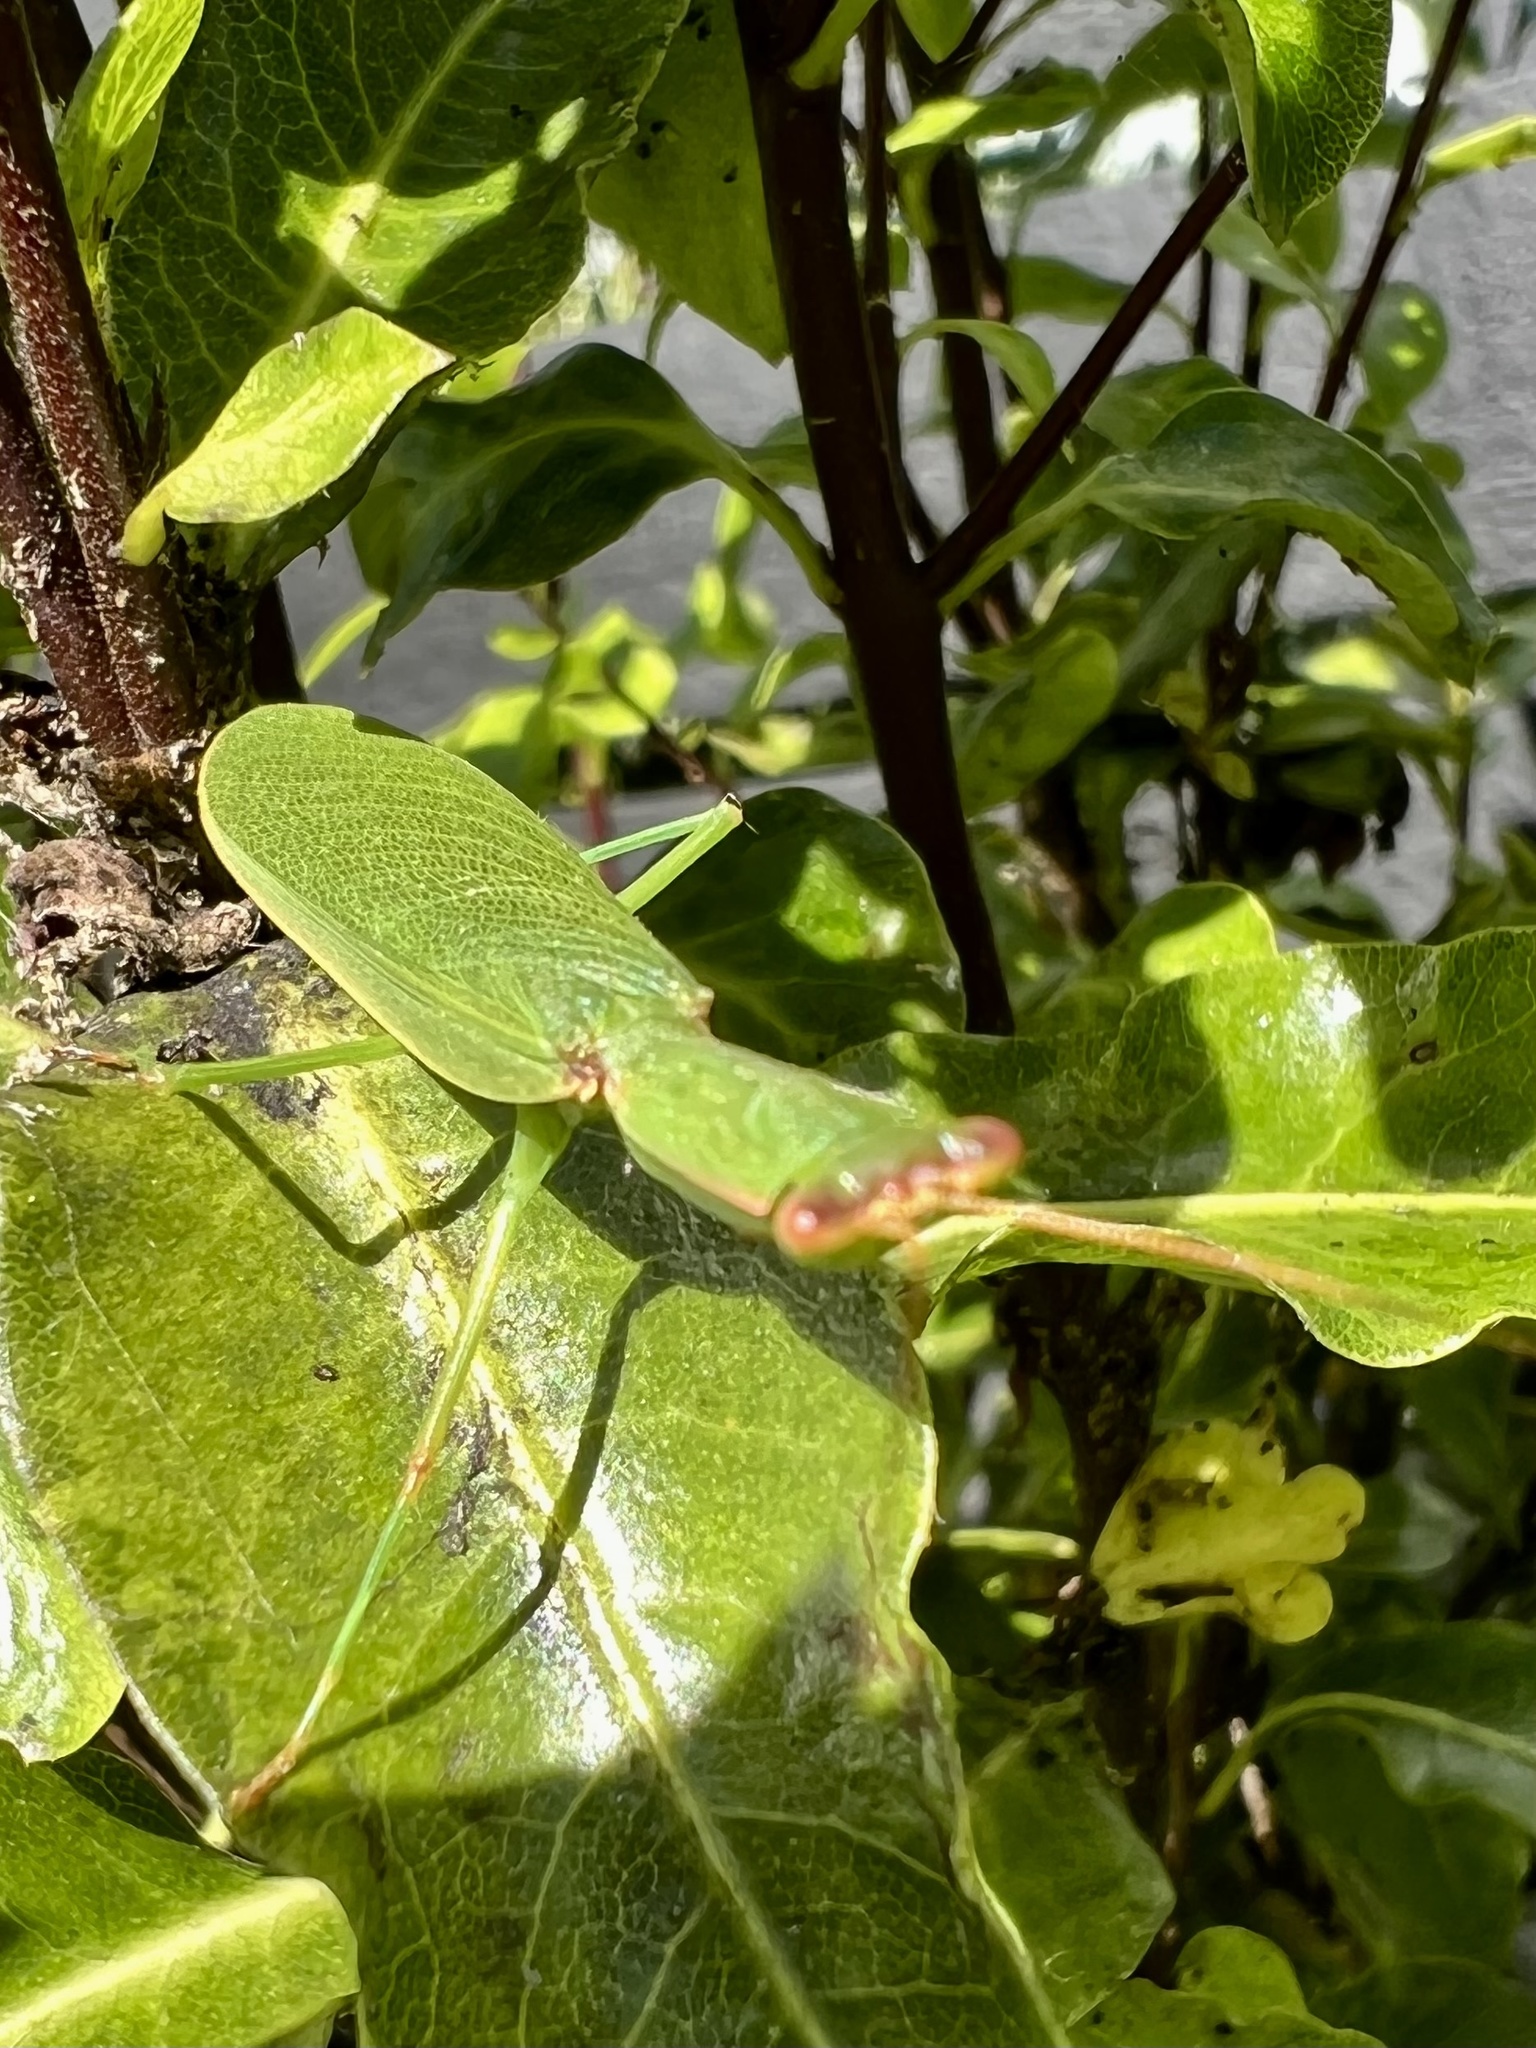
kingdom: Animalia
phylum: Arthropoda
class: Insecta
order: Mantodea
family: Mantidae
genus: Orthodera
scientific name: Orthodera novaezealandiae
